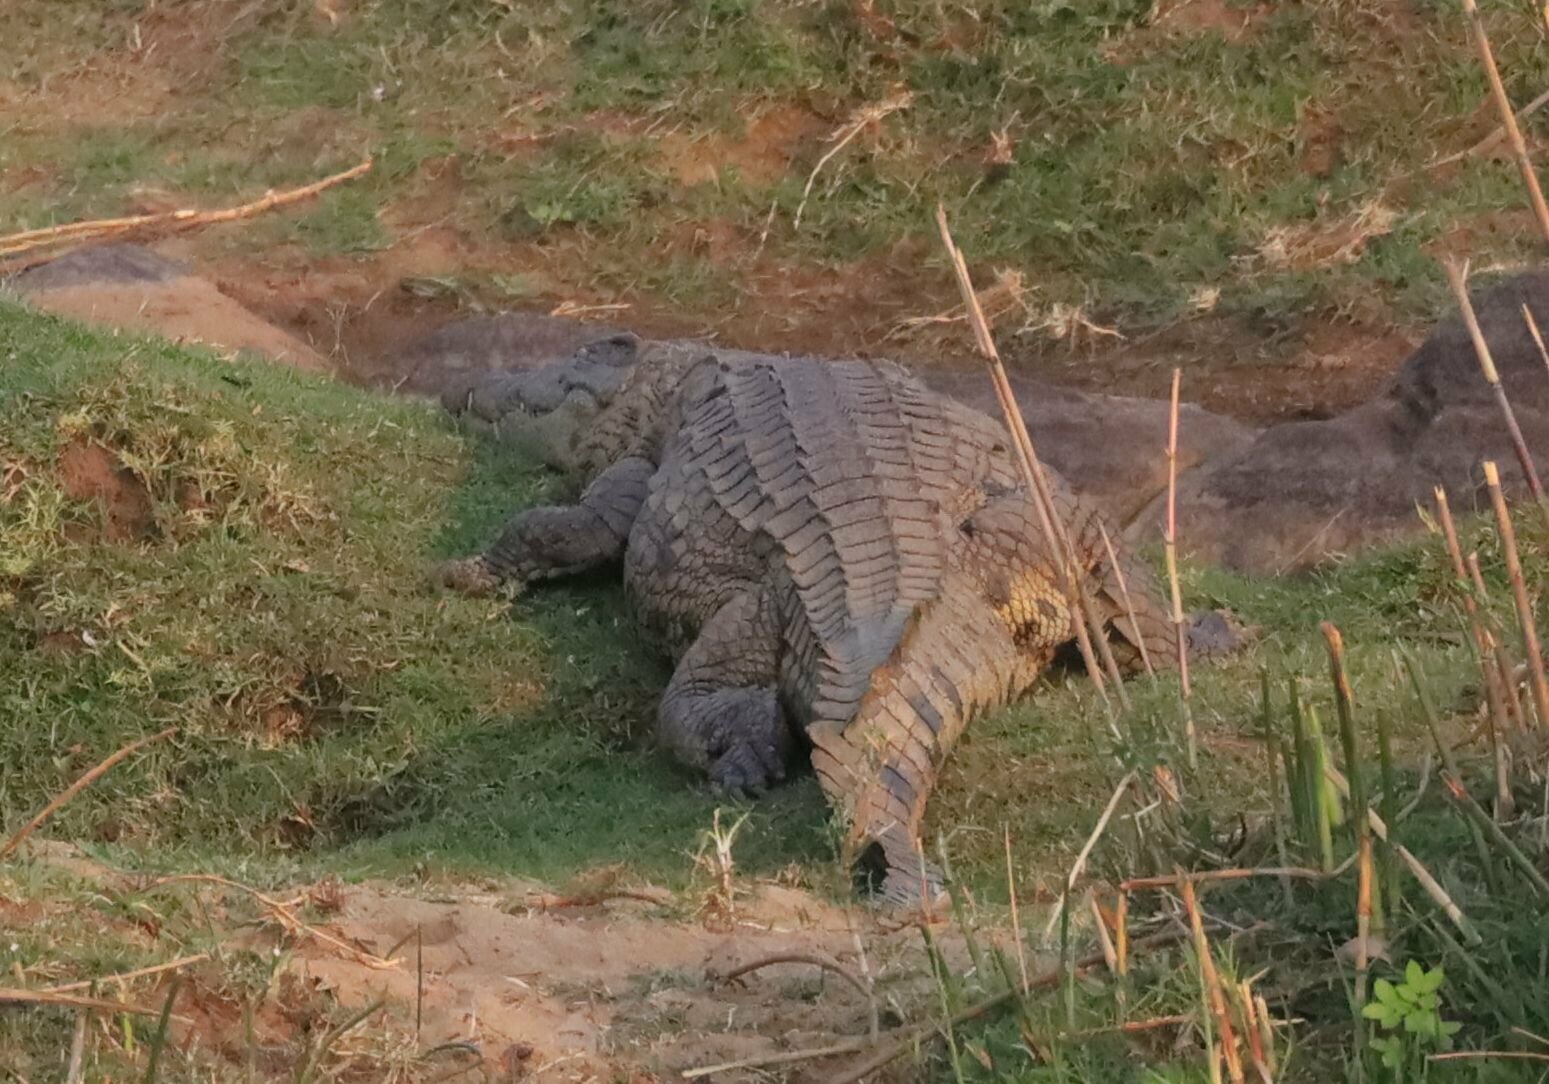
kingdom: Animalia
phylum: Chordata
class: Crocodylia
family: Crocodylidae
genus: Crocodylus
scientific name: Crocodylus niloticus
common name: Nile crocodile
